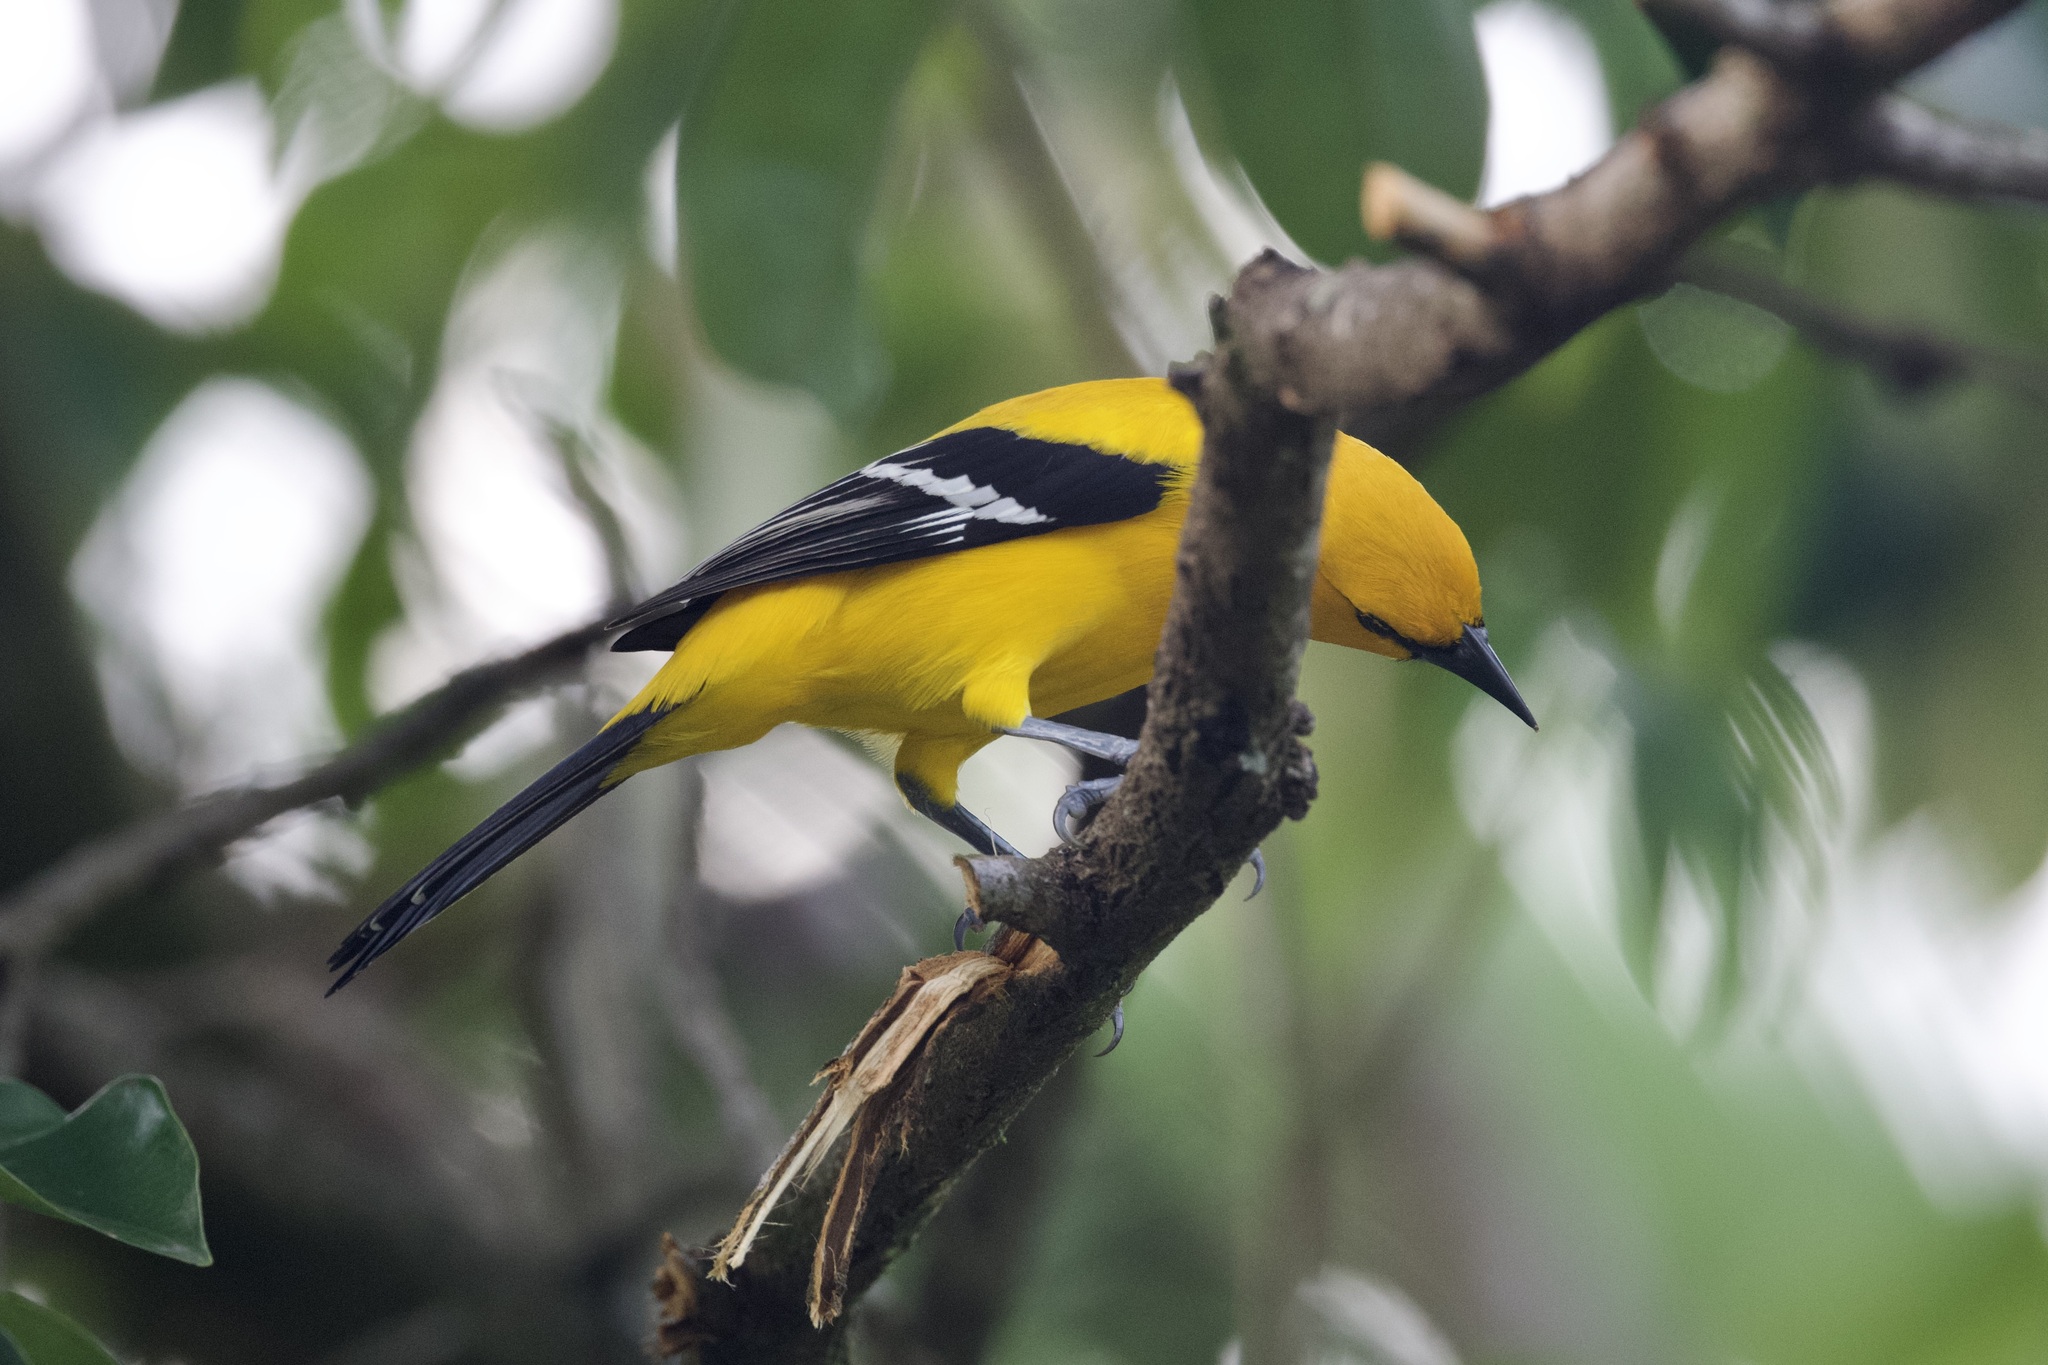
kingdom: Animalia
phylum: Chordata
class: Aves
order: Passeriformes
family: Icteridae
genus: Icterus
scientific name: Icterus nigrogularis
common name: Yellow oriole
